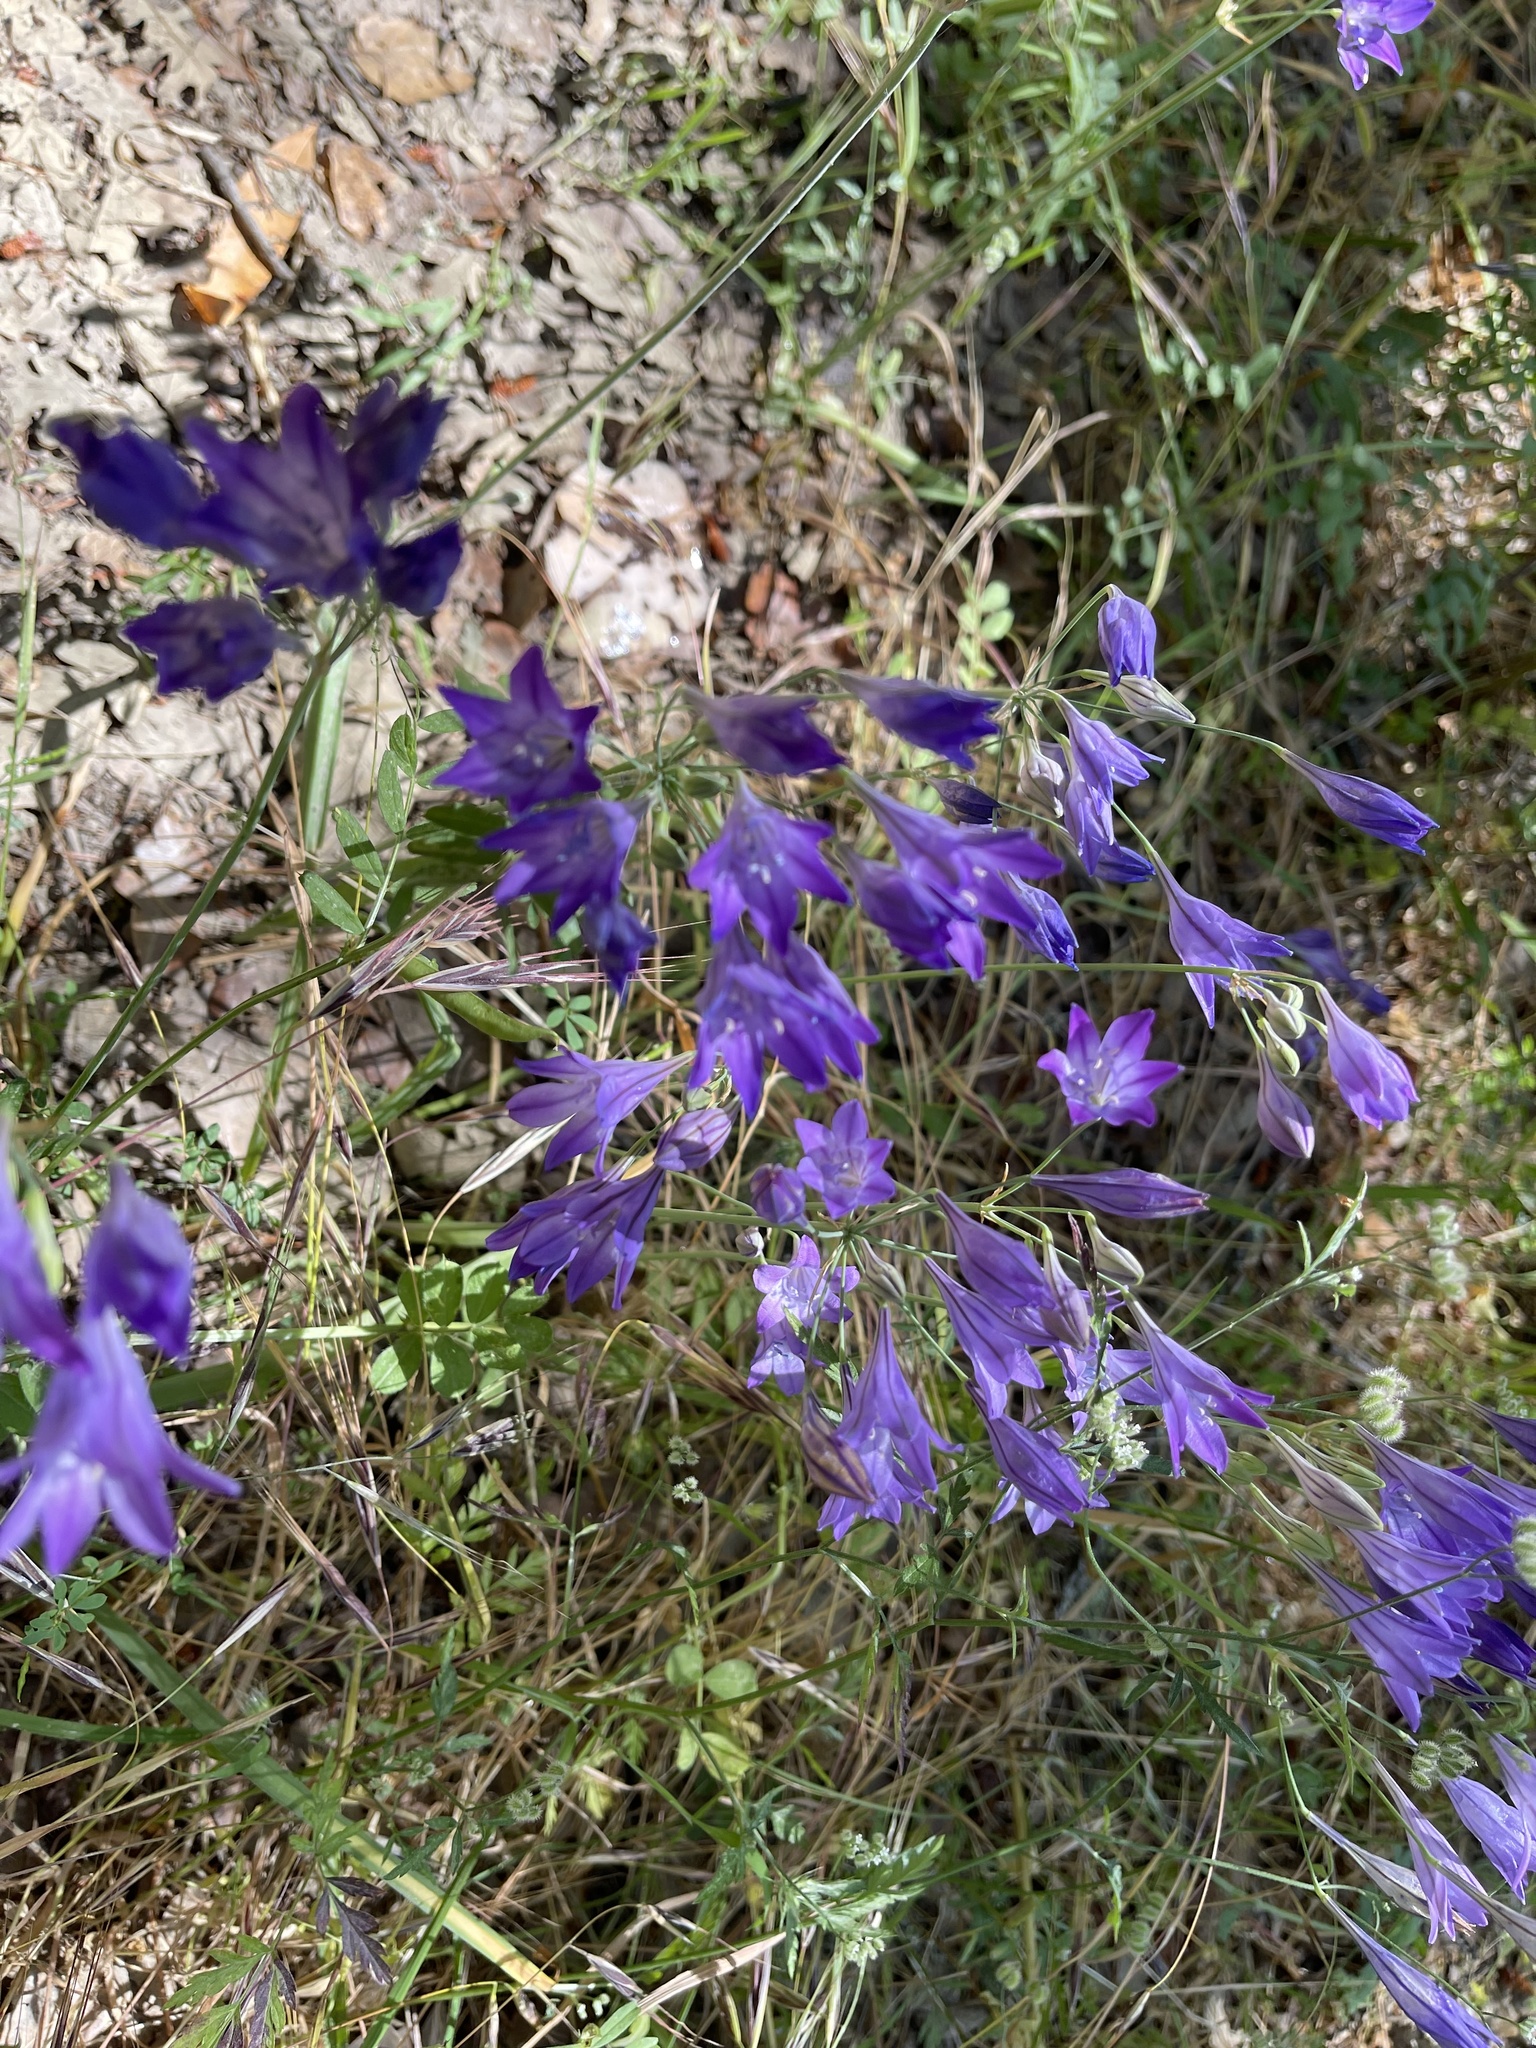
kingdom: Plantae
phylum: Tracheophyta
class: Liliopsida
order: Asparagales
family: Asparagaceae
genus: Triteleia
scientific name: Triteleia laxa
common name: Triplet-lily
